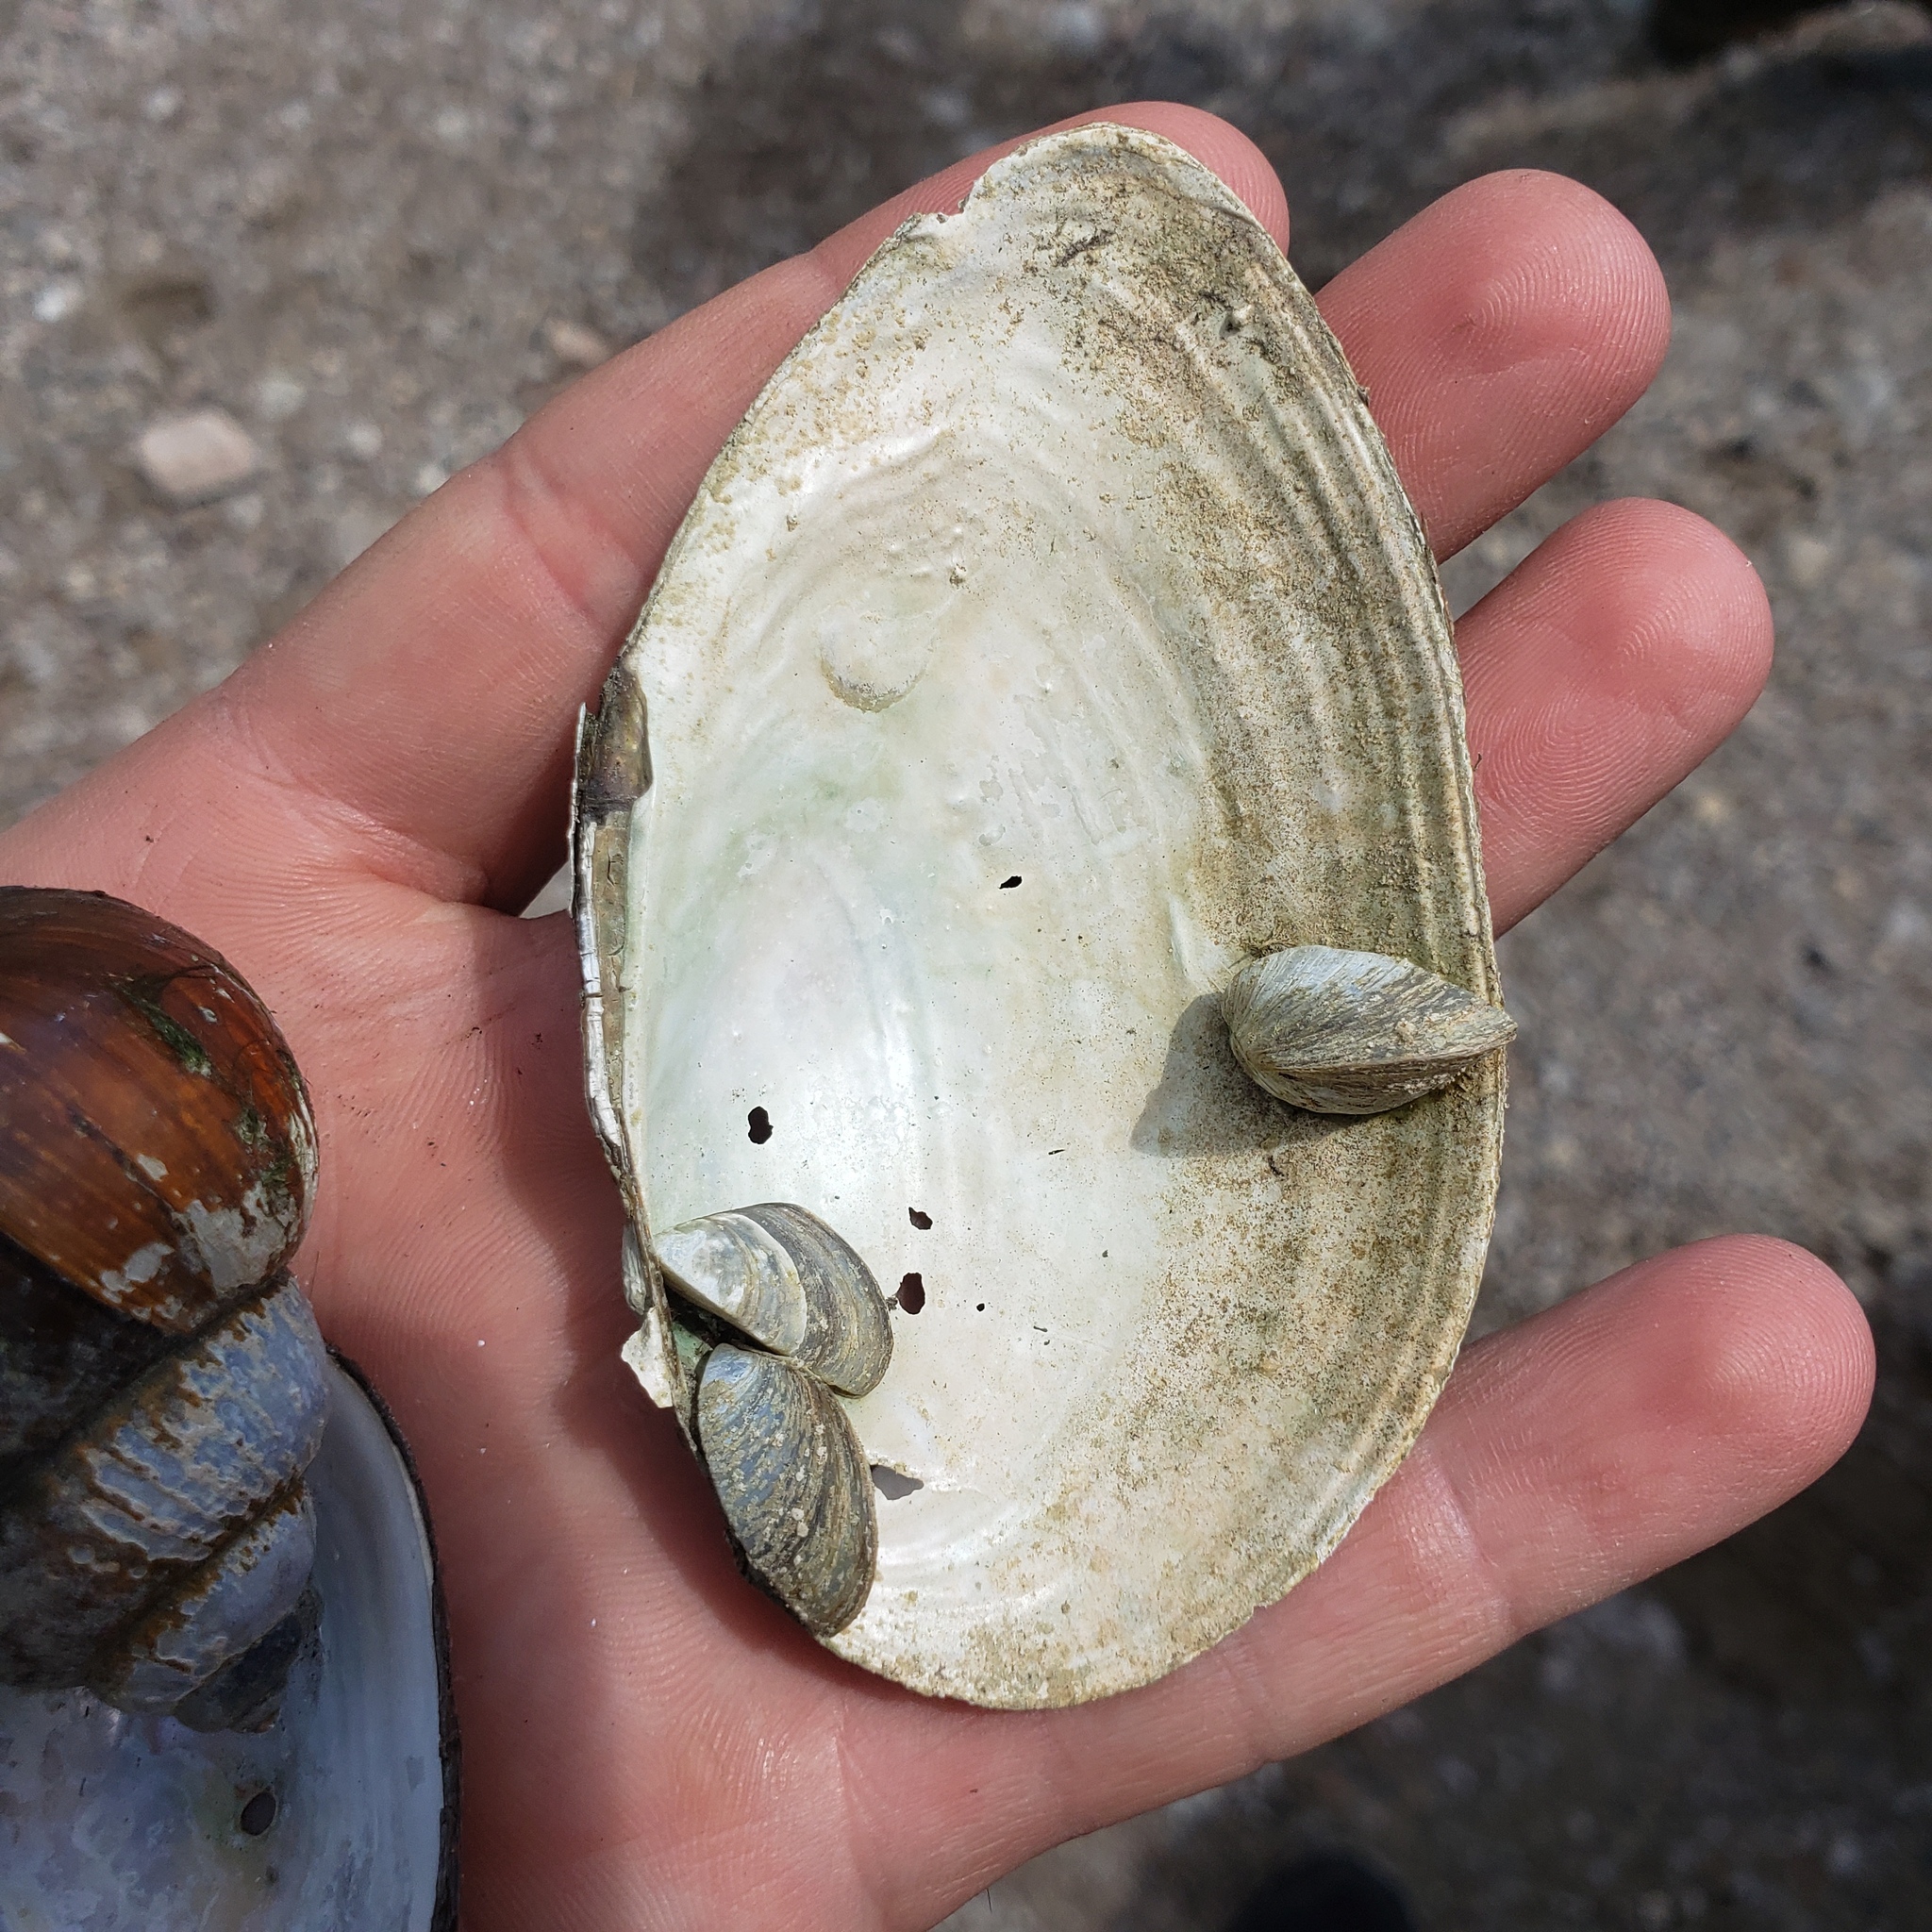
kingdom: Animalia
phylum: Mollusca
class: Bivalvia
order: Unionida
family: Unionidae
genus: Pyganodon
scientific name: Pyganodon grandis
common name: Giant floater
